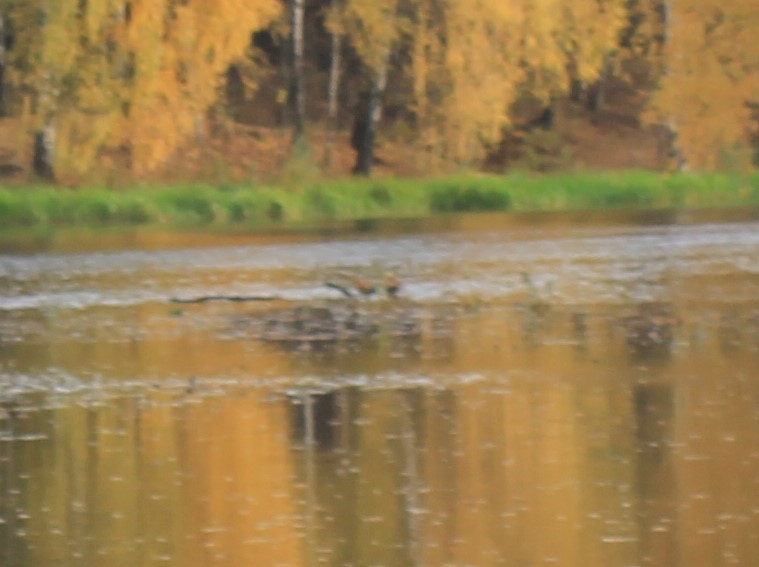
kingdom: Animalia
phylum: Chordata
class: Aves
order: Anseriformes
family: Anatidae
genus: Tadorna
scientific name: Tadorna ferruginea
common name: Ruddy shelduck
